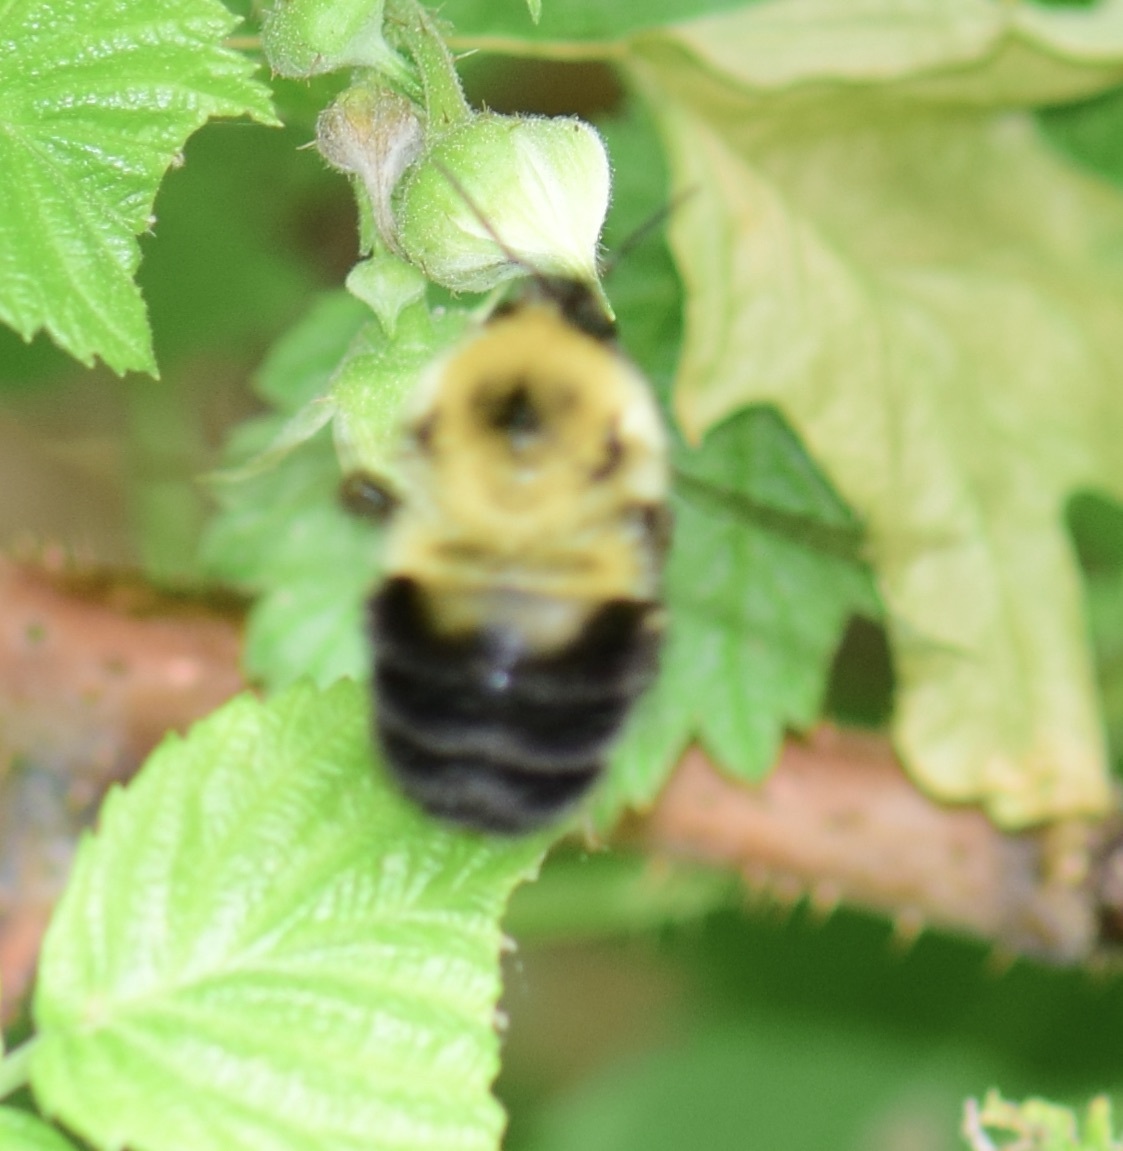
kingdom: Animalia
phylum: Arthropoda
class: Insecta
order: Hymenoptera
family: Apidae
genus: Bombus
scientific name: Bombus bimaculatus
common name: Two-spotted bumble bee
